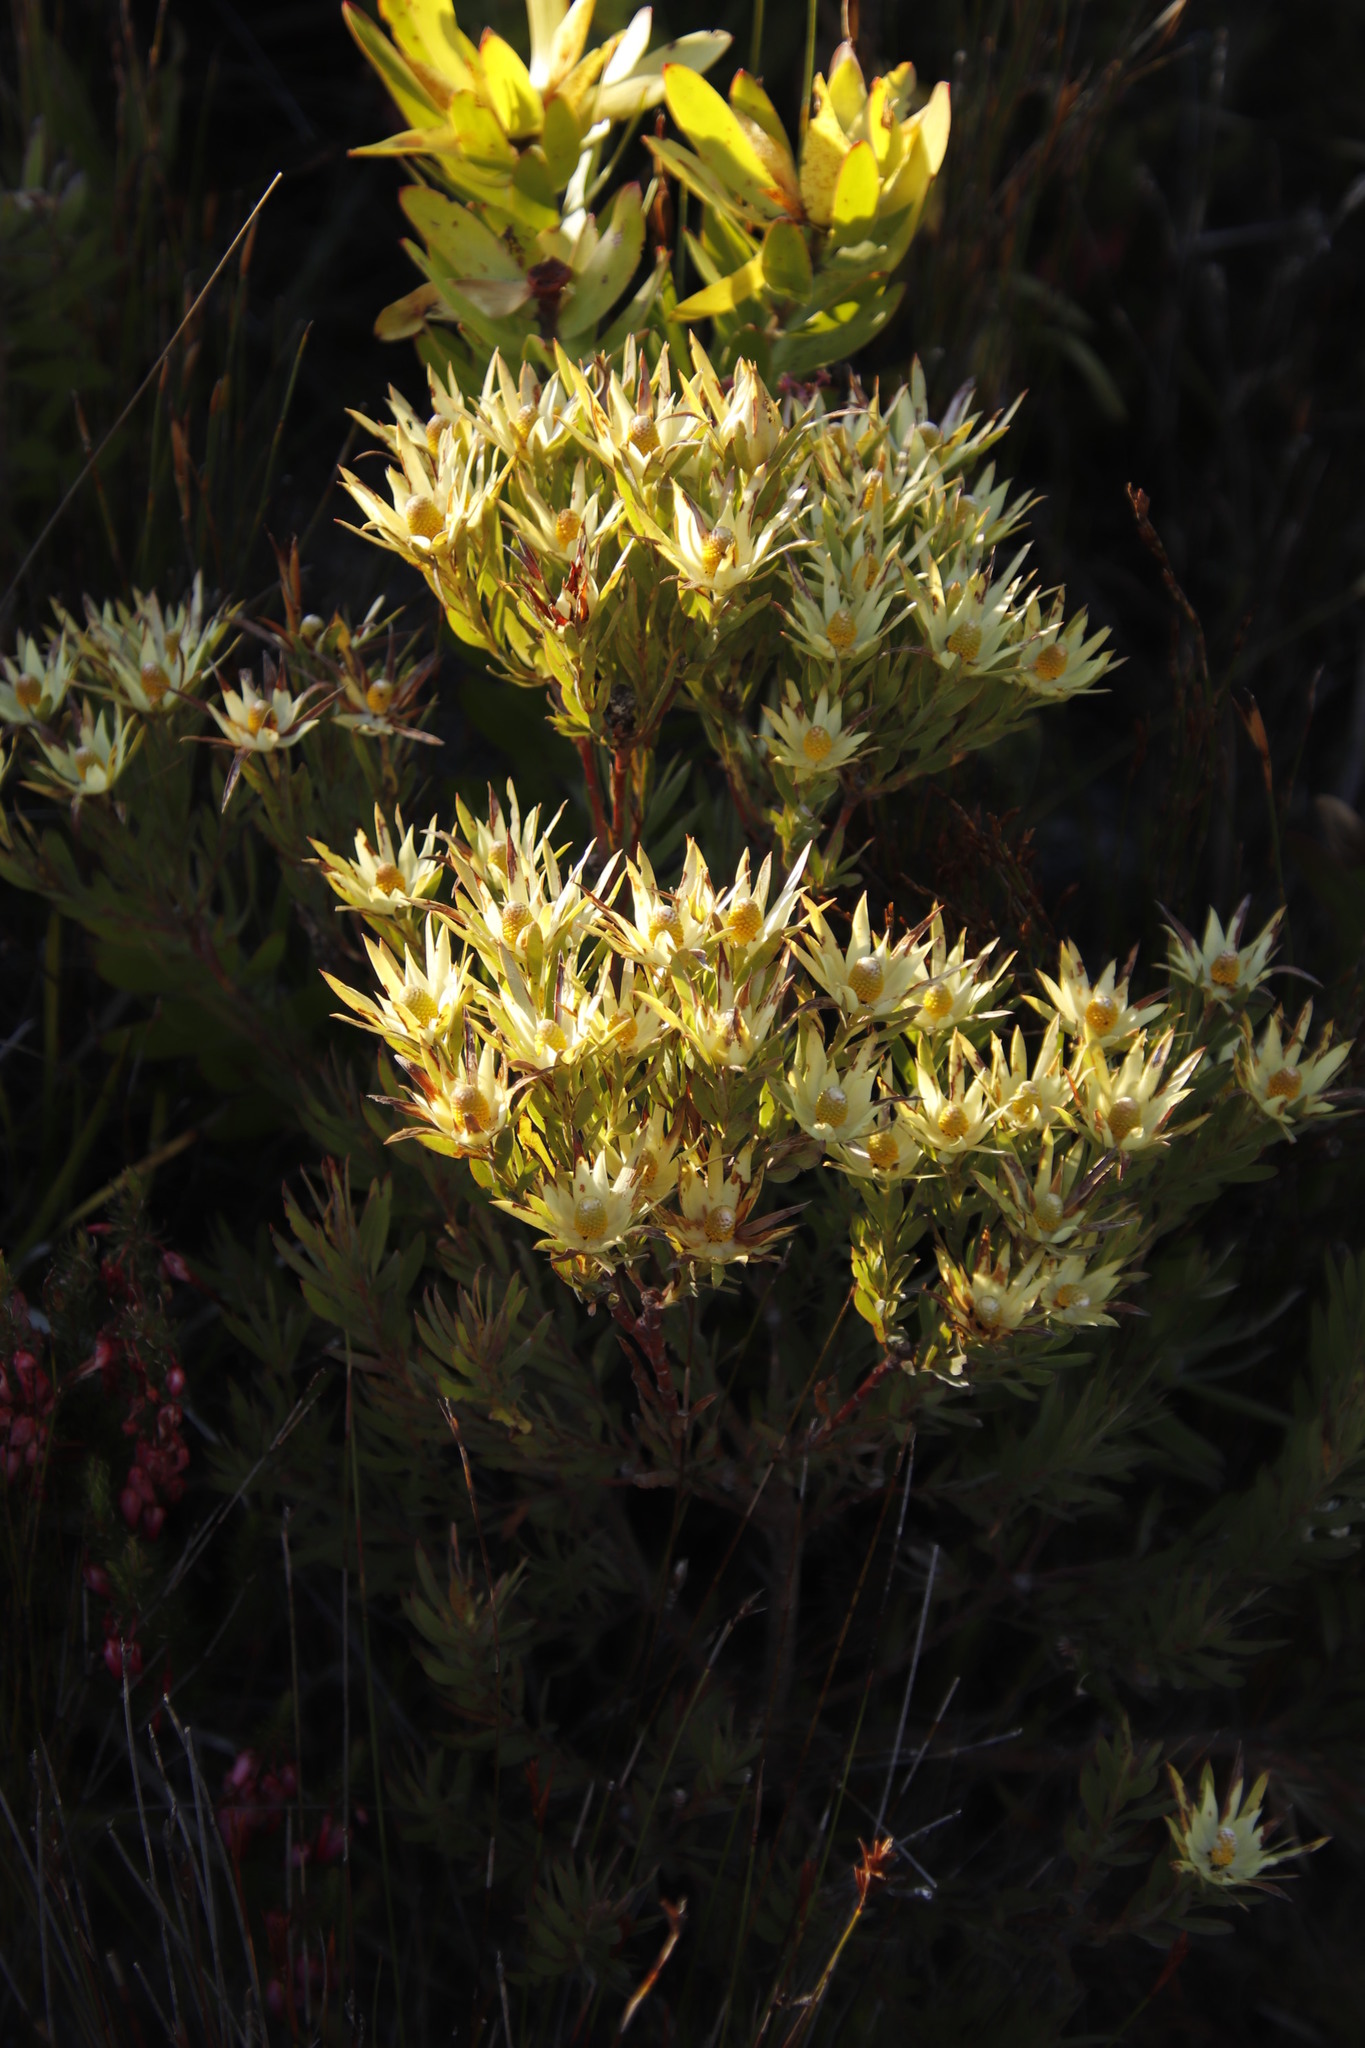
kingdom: Plantae
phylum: Tracheophyta
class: Magnoliopsida
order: Proteales
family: Proteaceae
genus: Leucadendron
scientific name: Leucadendron xanthoconus
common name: Sickle-leaf conebush
